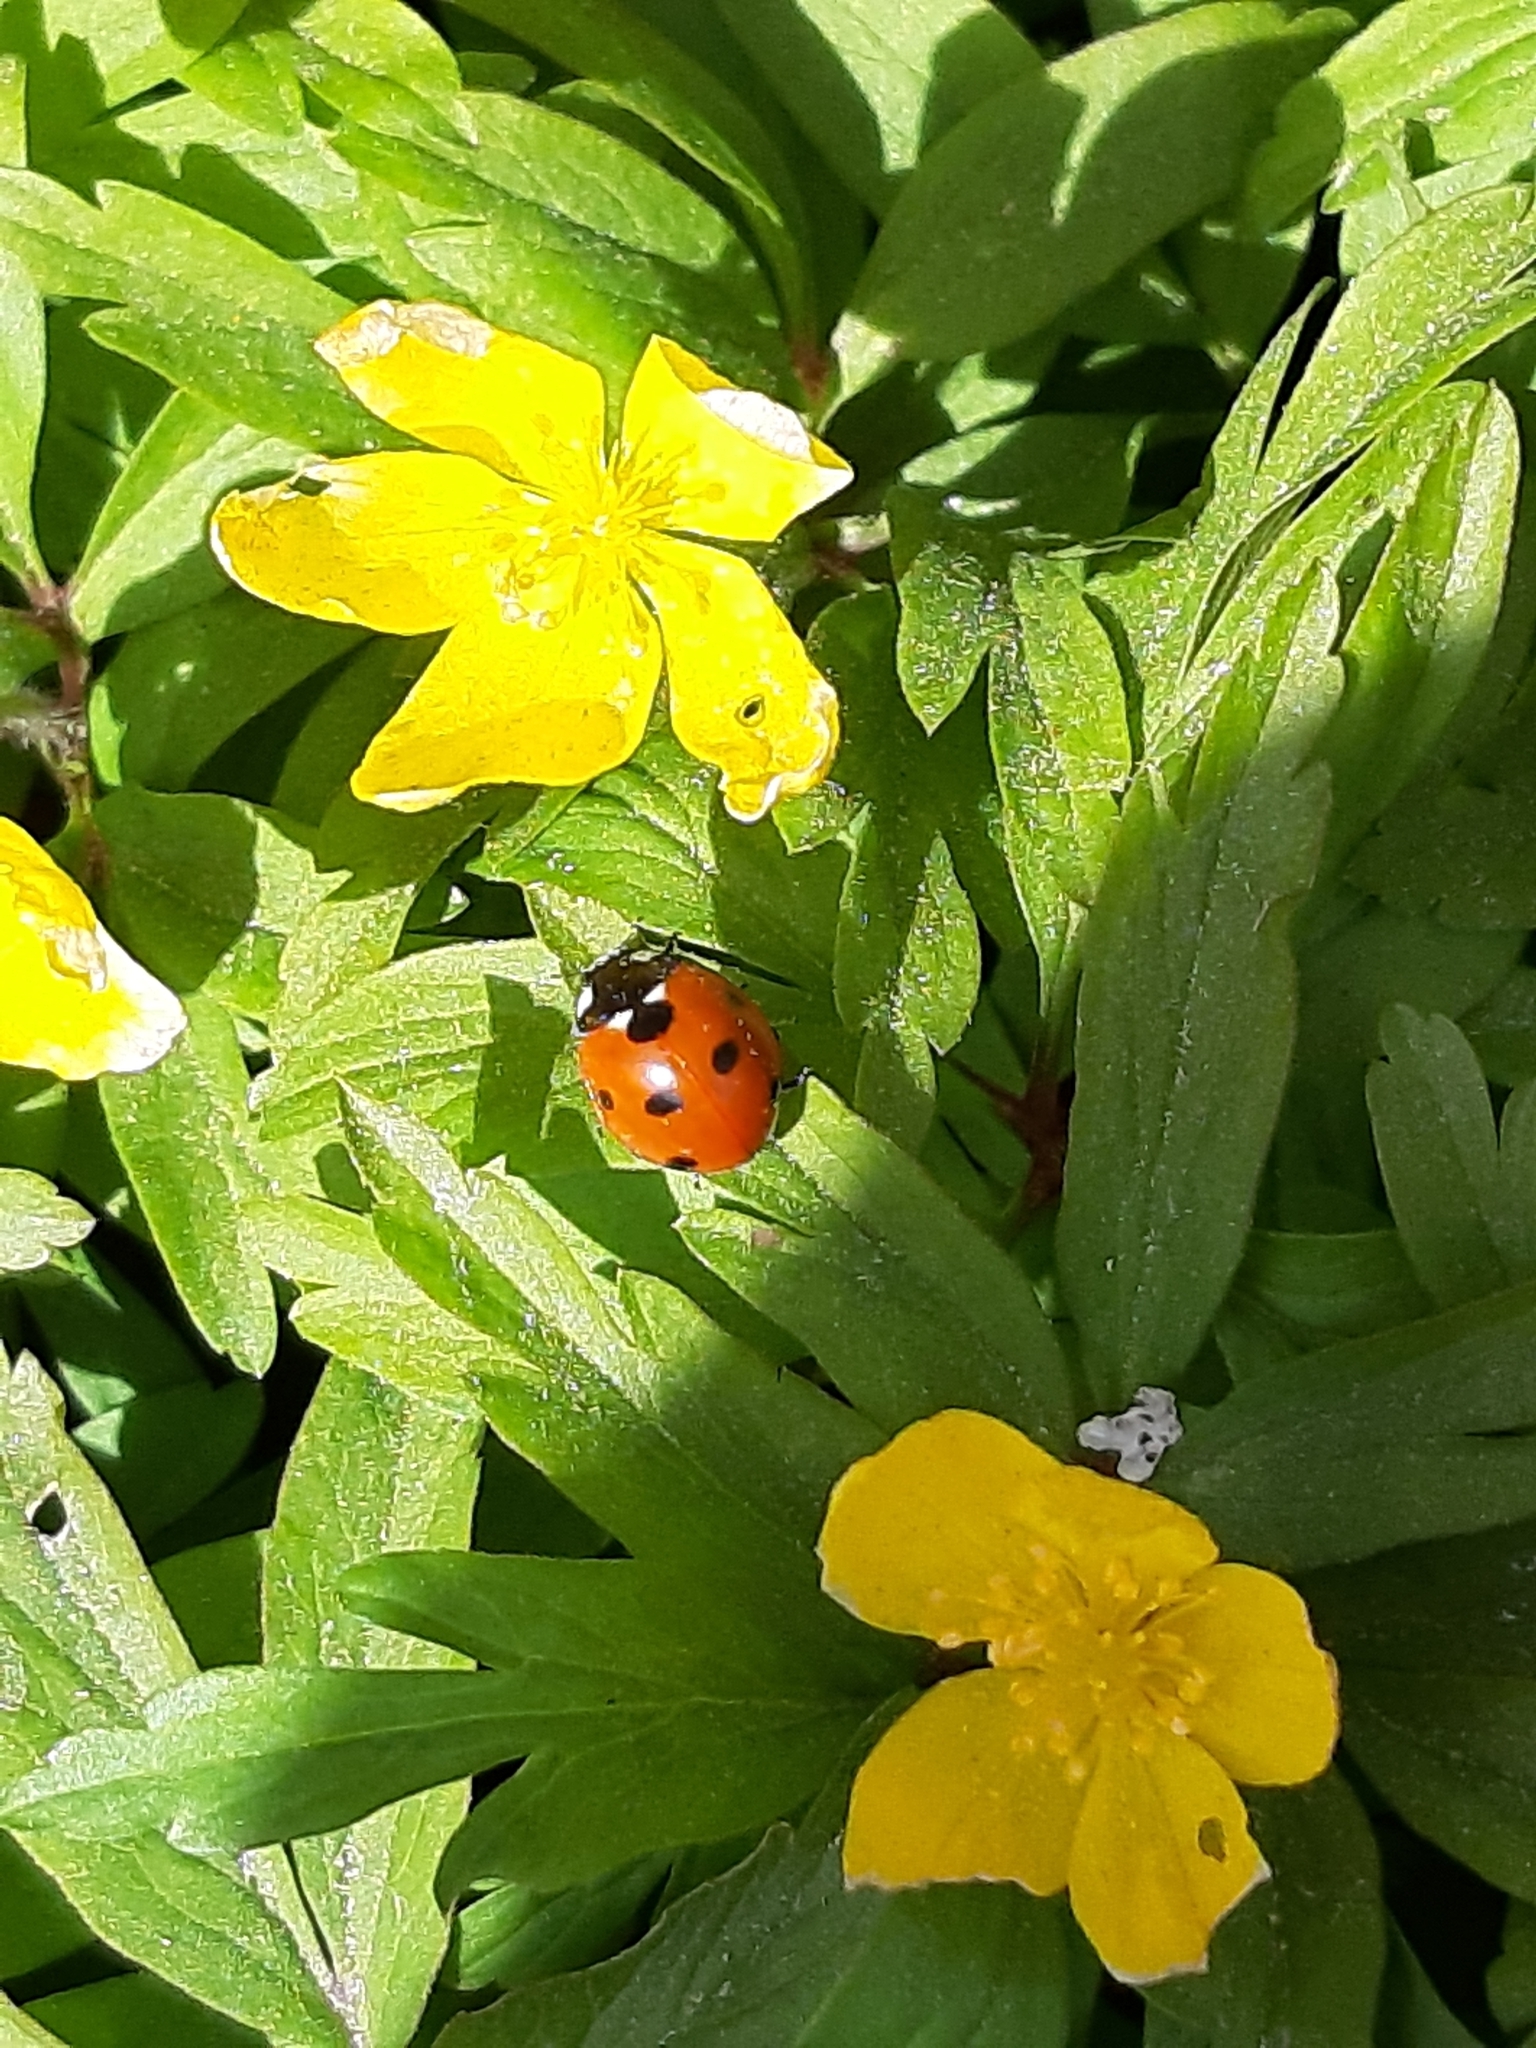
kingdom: Animalia
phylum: Arthropoda
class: Insecta
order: Coleoptera
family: Coccinellidae
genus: Coccinella
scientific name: Coccinella septempunctata
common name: Sevenspotted lady beetle
